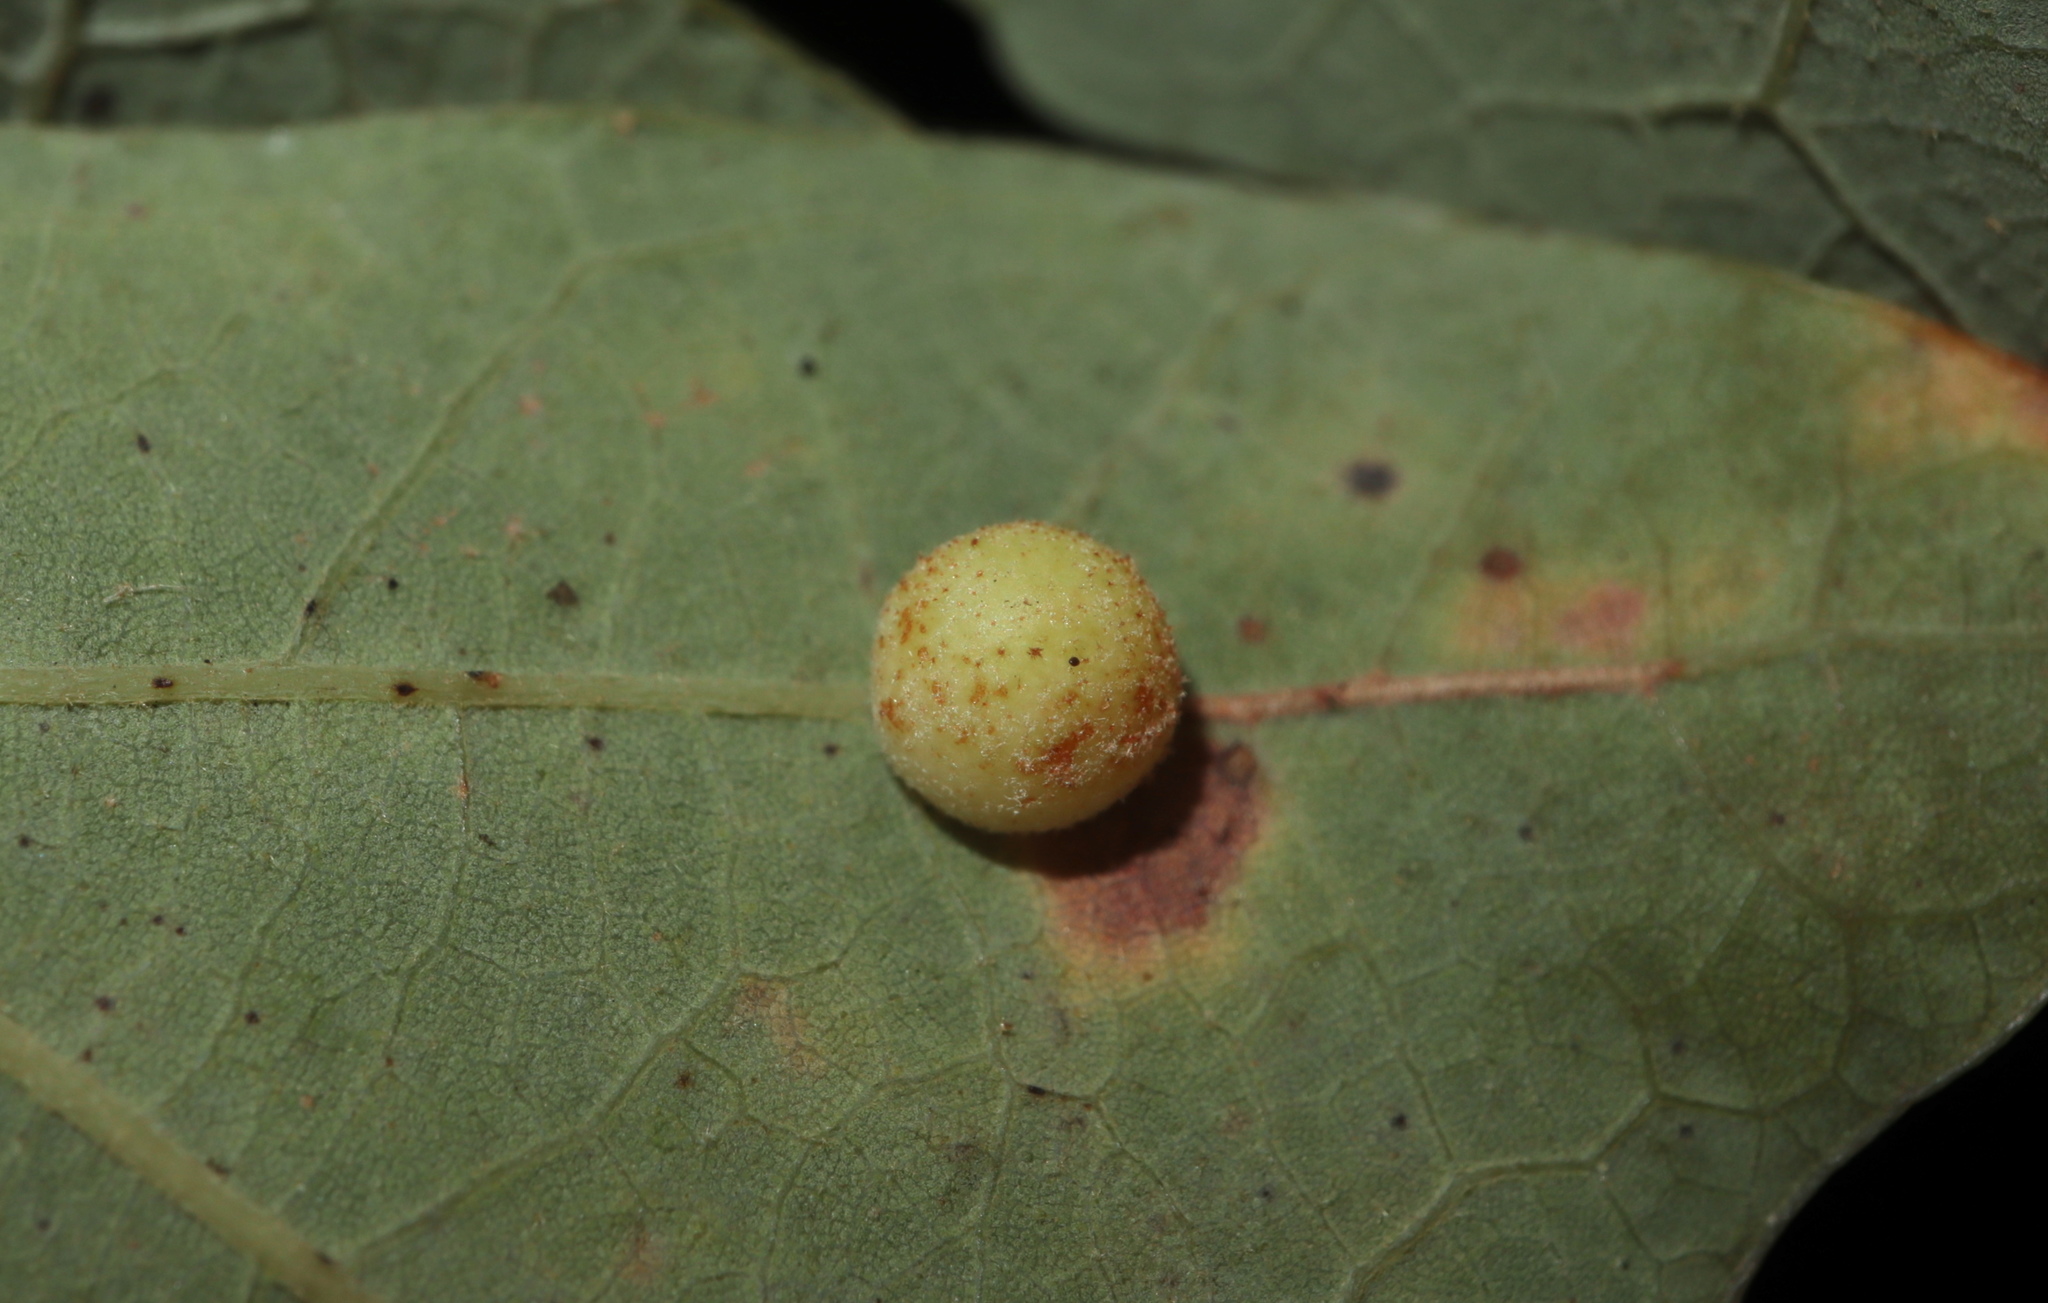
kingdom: Animalia
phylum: Arthropoda
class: Insecta
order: Hymenoptera
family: Cynipidae
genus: Atrusca
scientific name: Atrusca
